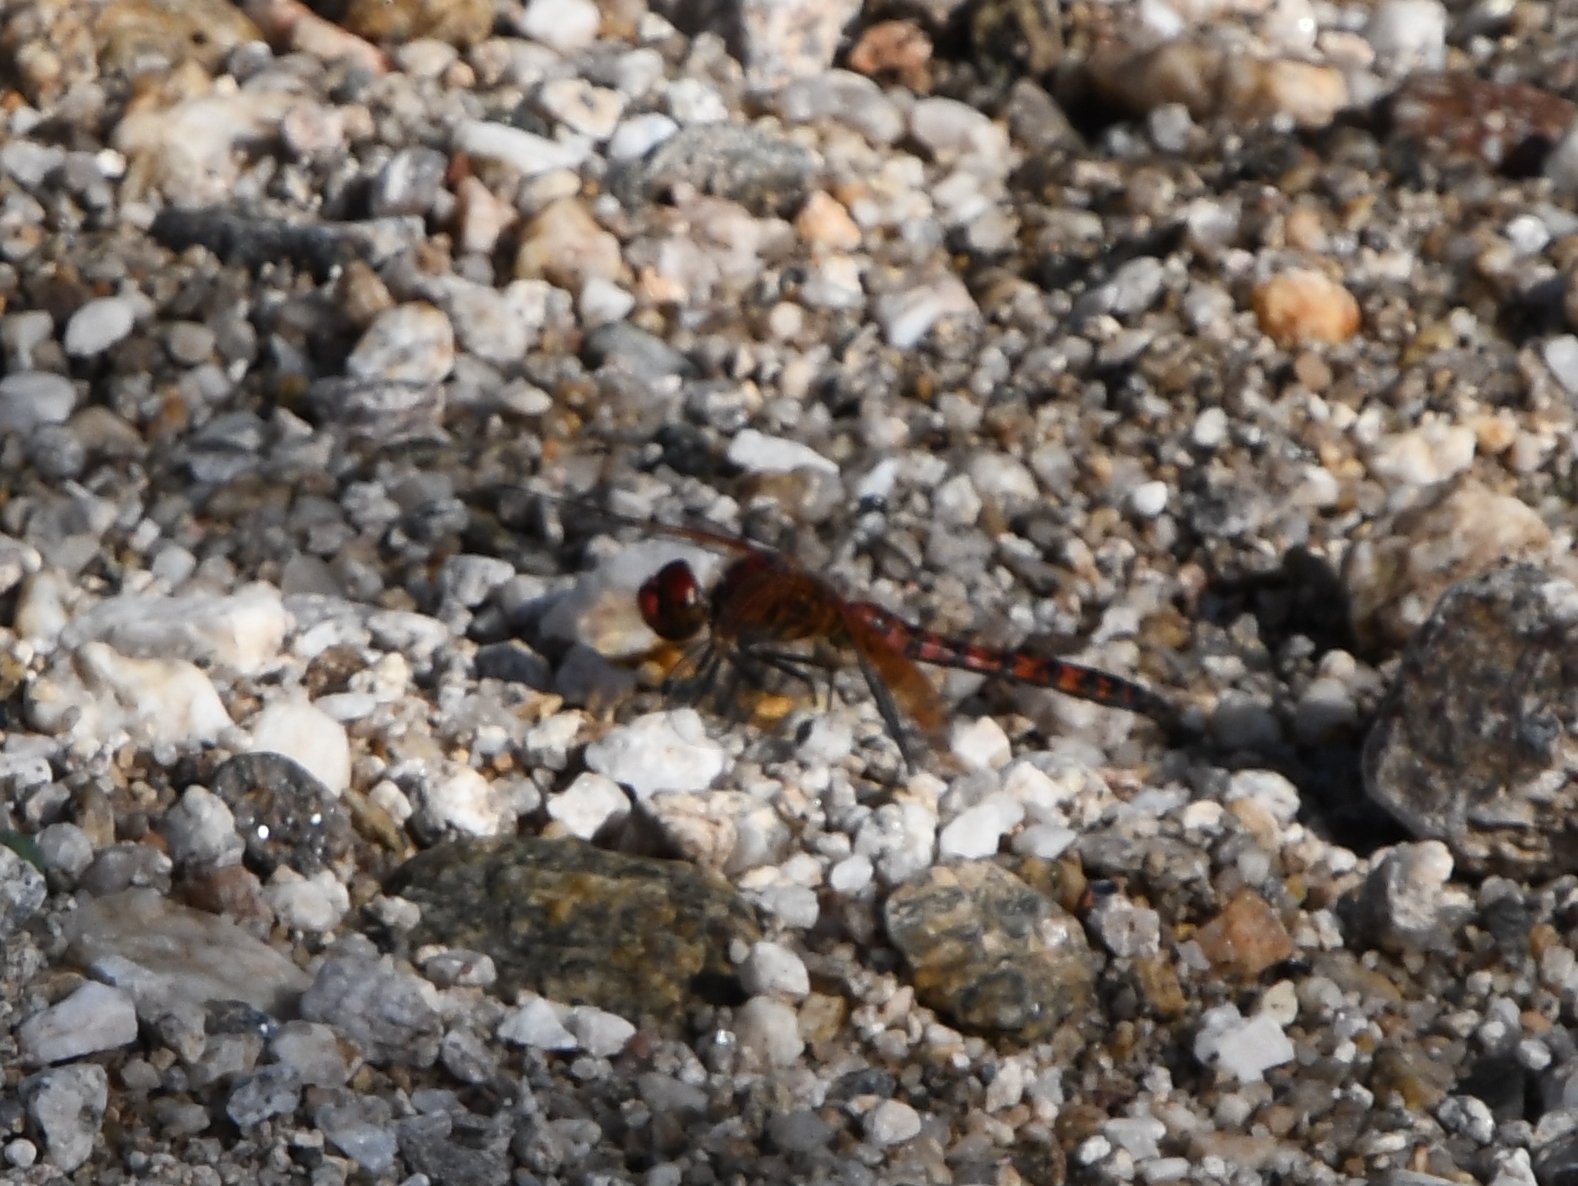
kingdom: Animalia
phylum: Arthropoda
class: Insecta
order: Odonata
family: Libellulidae
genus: Paltothemis
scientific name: Paltothemis lineatipes
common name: Red rock skimmer
